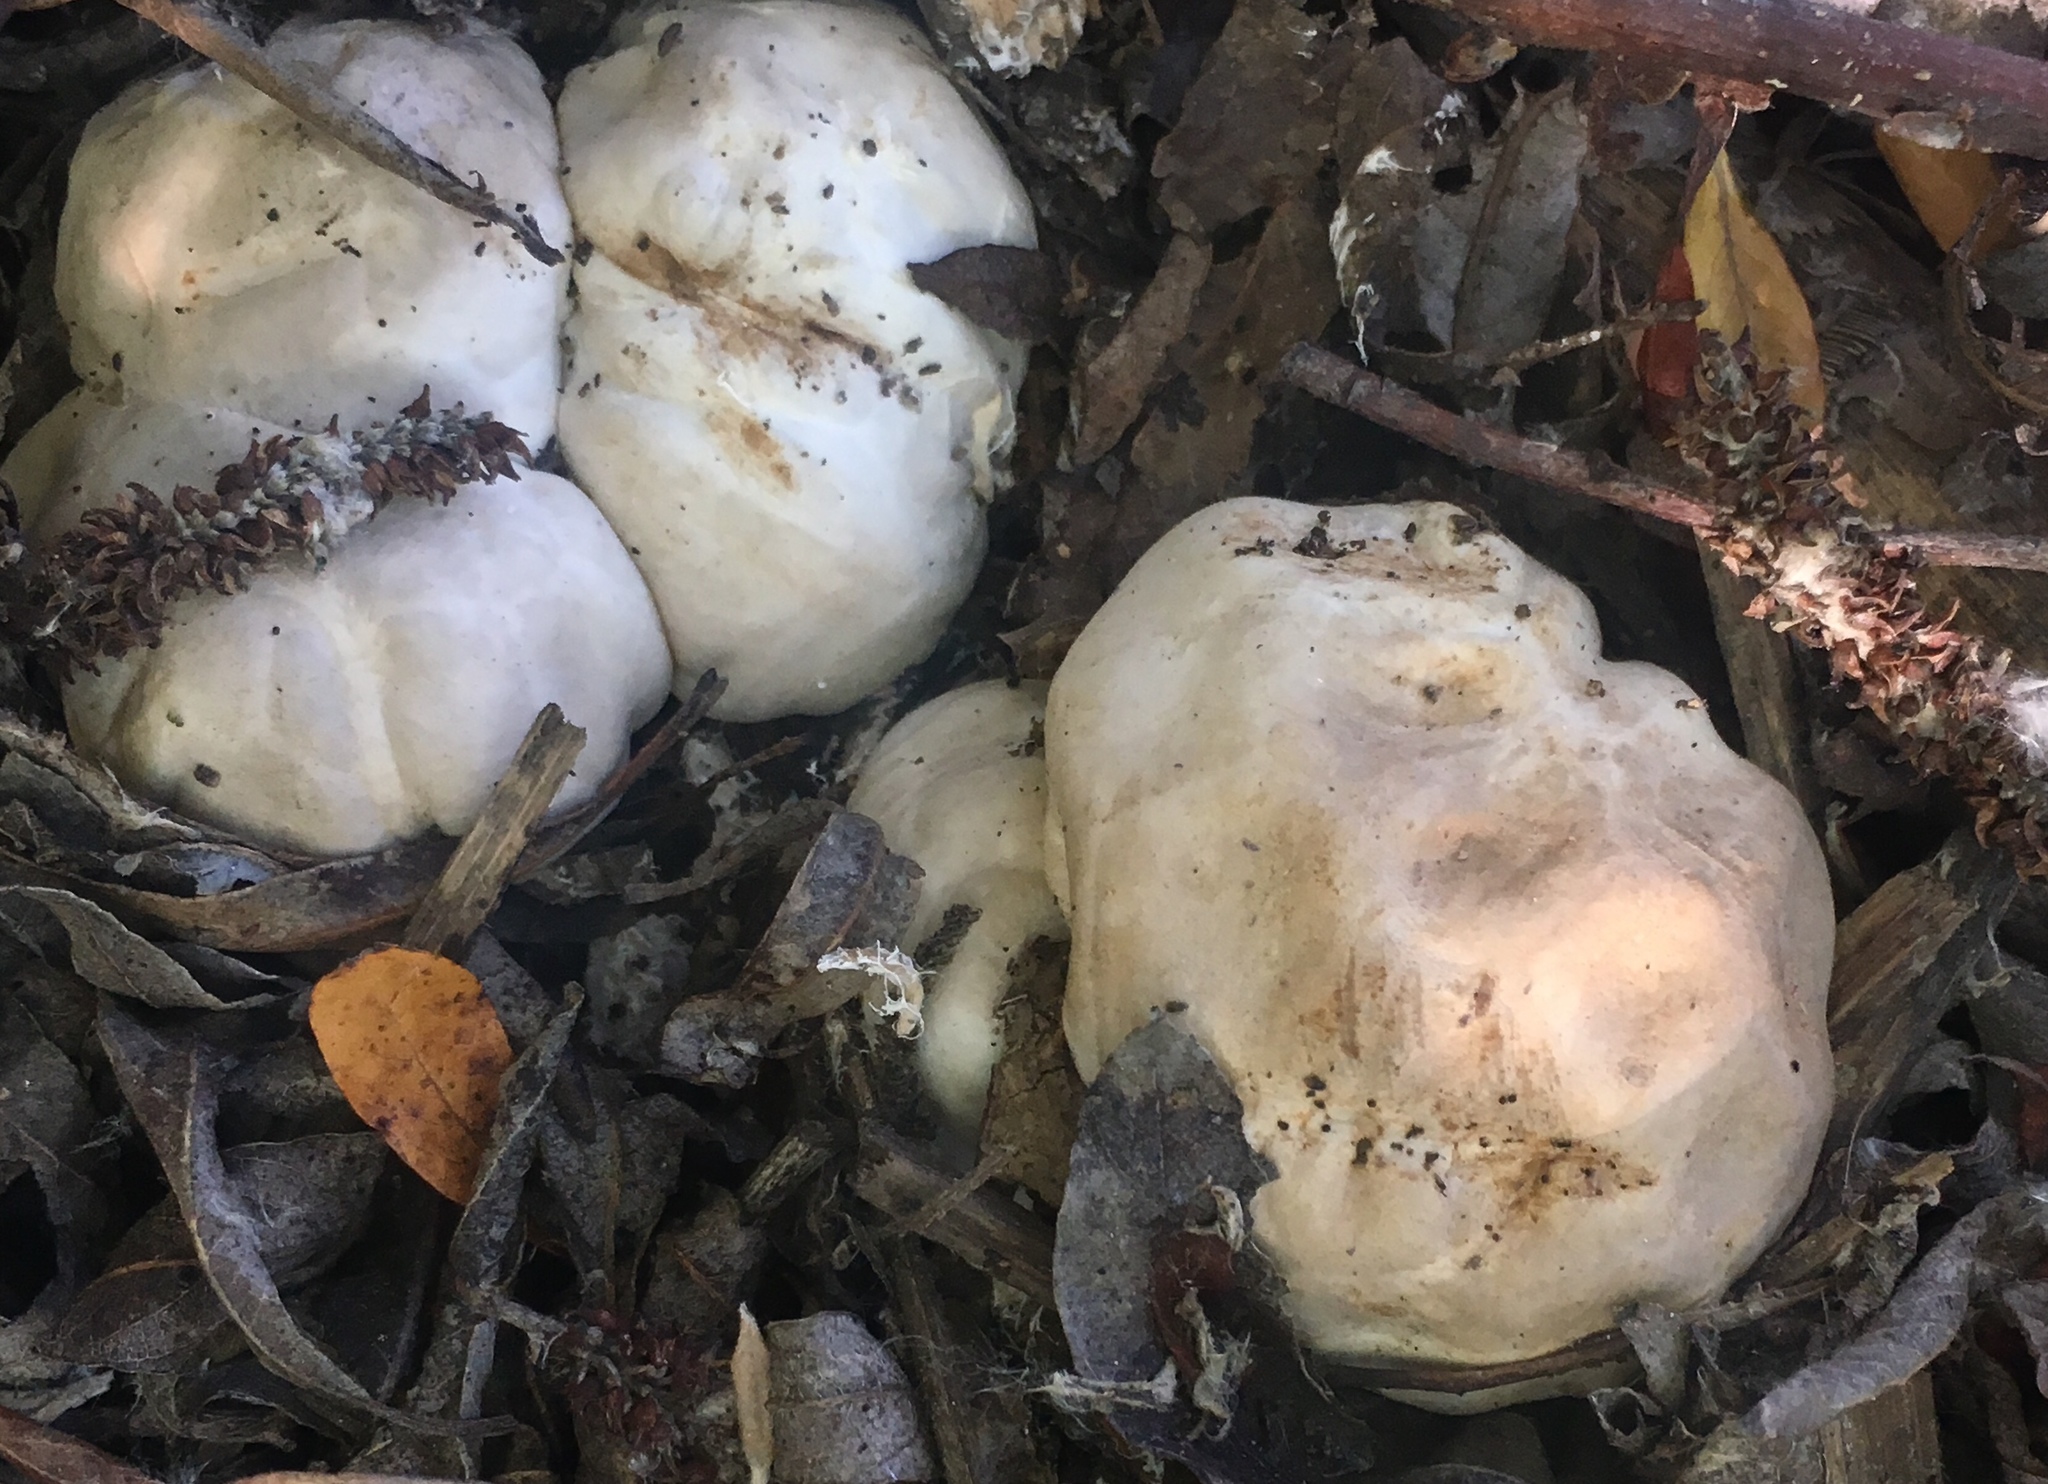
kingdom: Fungi
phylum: Basidiomycota
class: Agaricomycetes
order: Phallales
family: Phallaceae
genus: Clathrus
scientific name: Clathrus ruber
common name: Red cage
